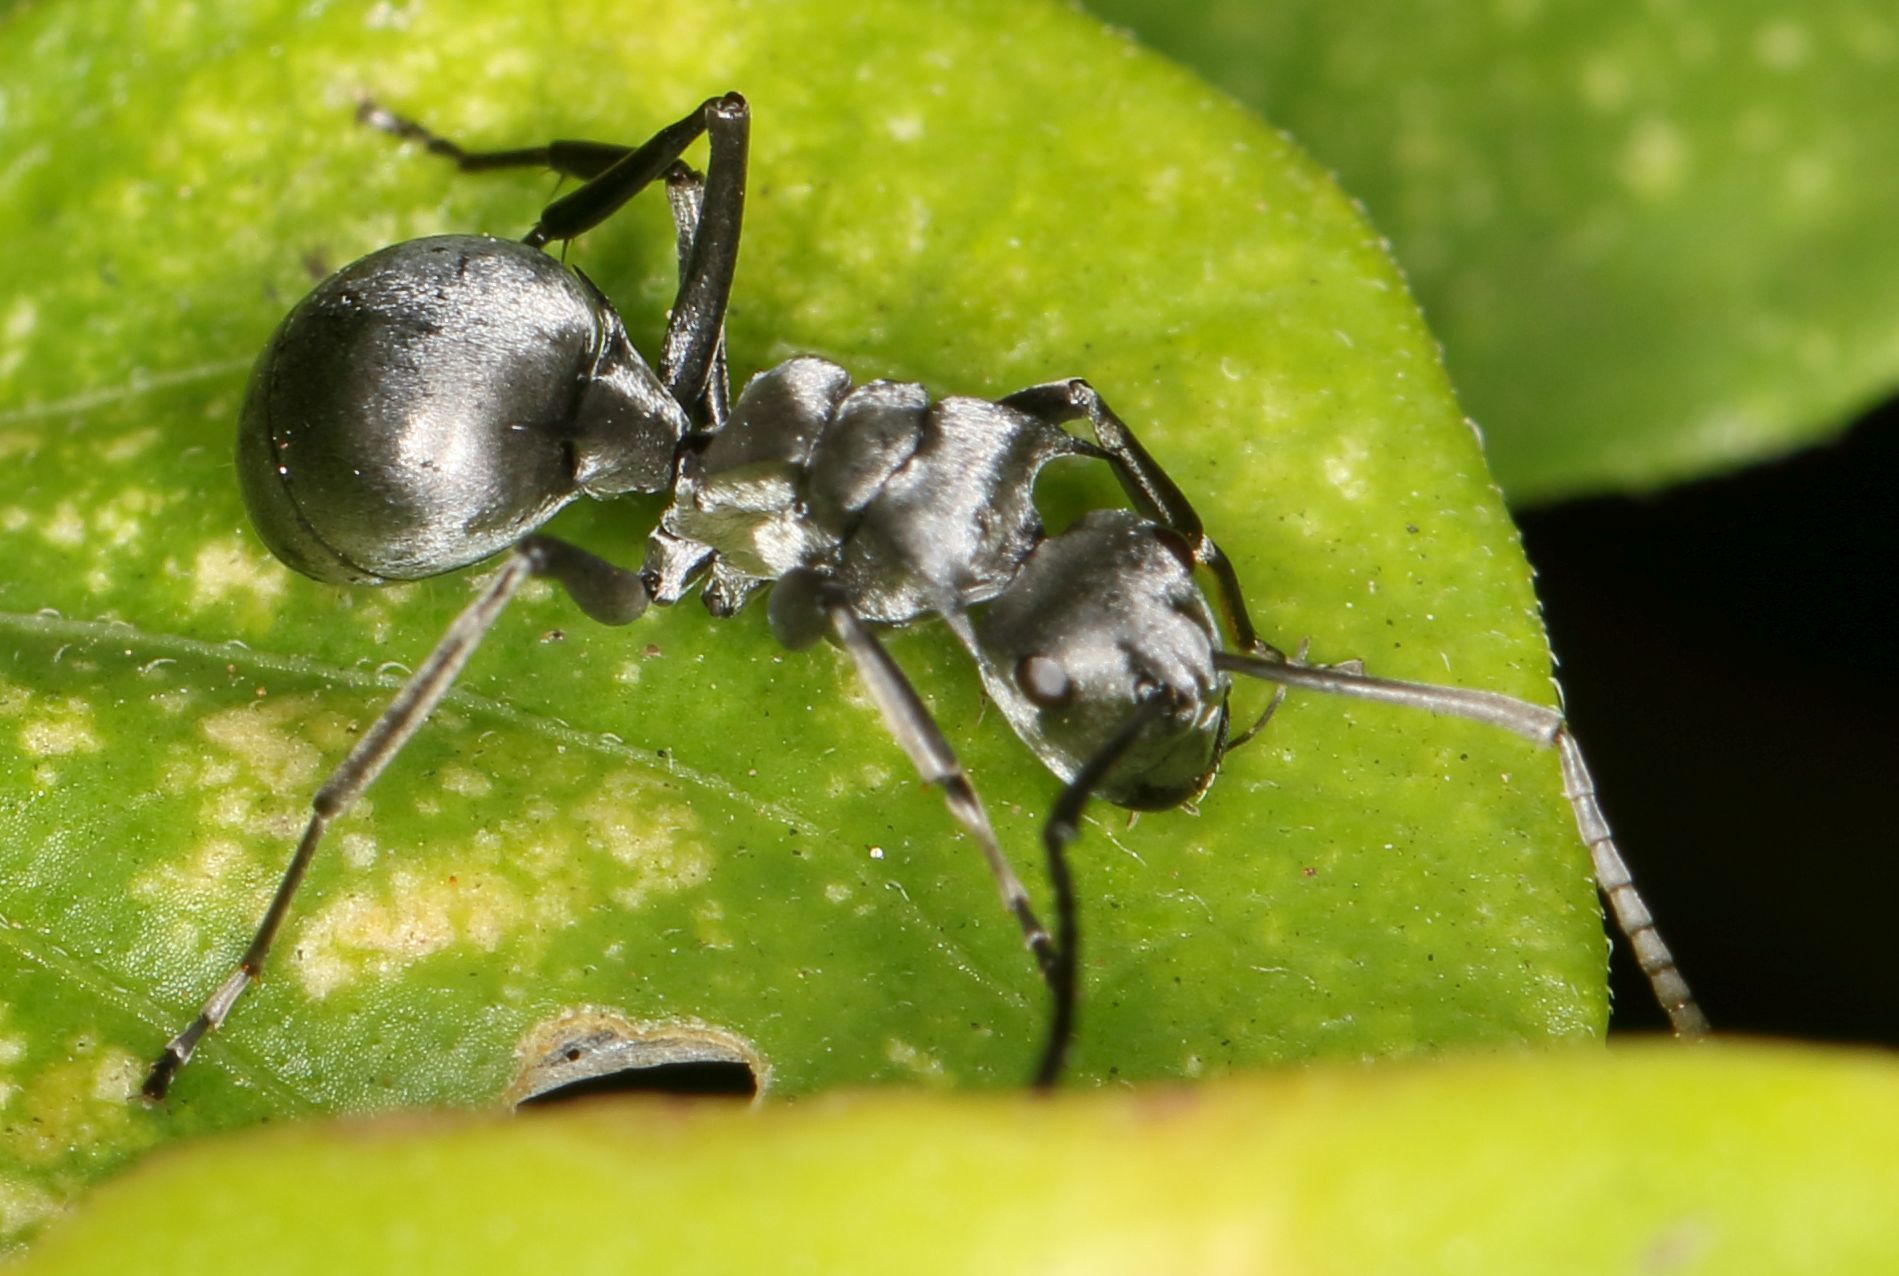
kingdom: Animalia
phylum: Arthropoda
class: Insecta
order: Hymenoptera
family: Formicidae
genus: Polyrhachis
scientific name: Polyrhachis schlueteri
